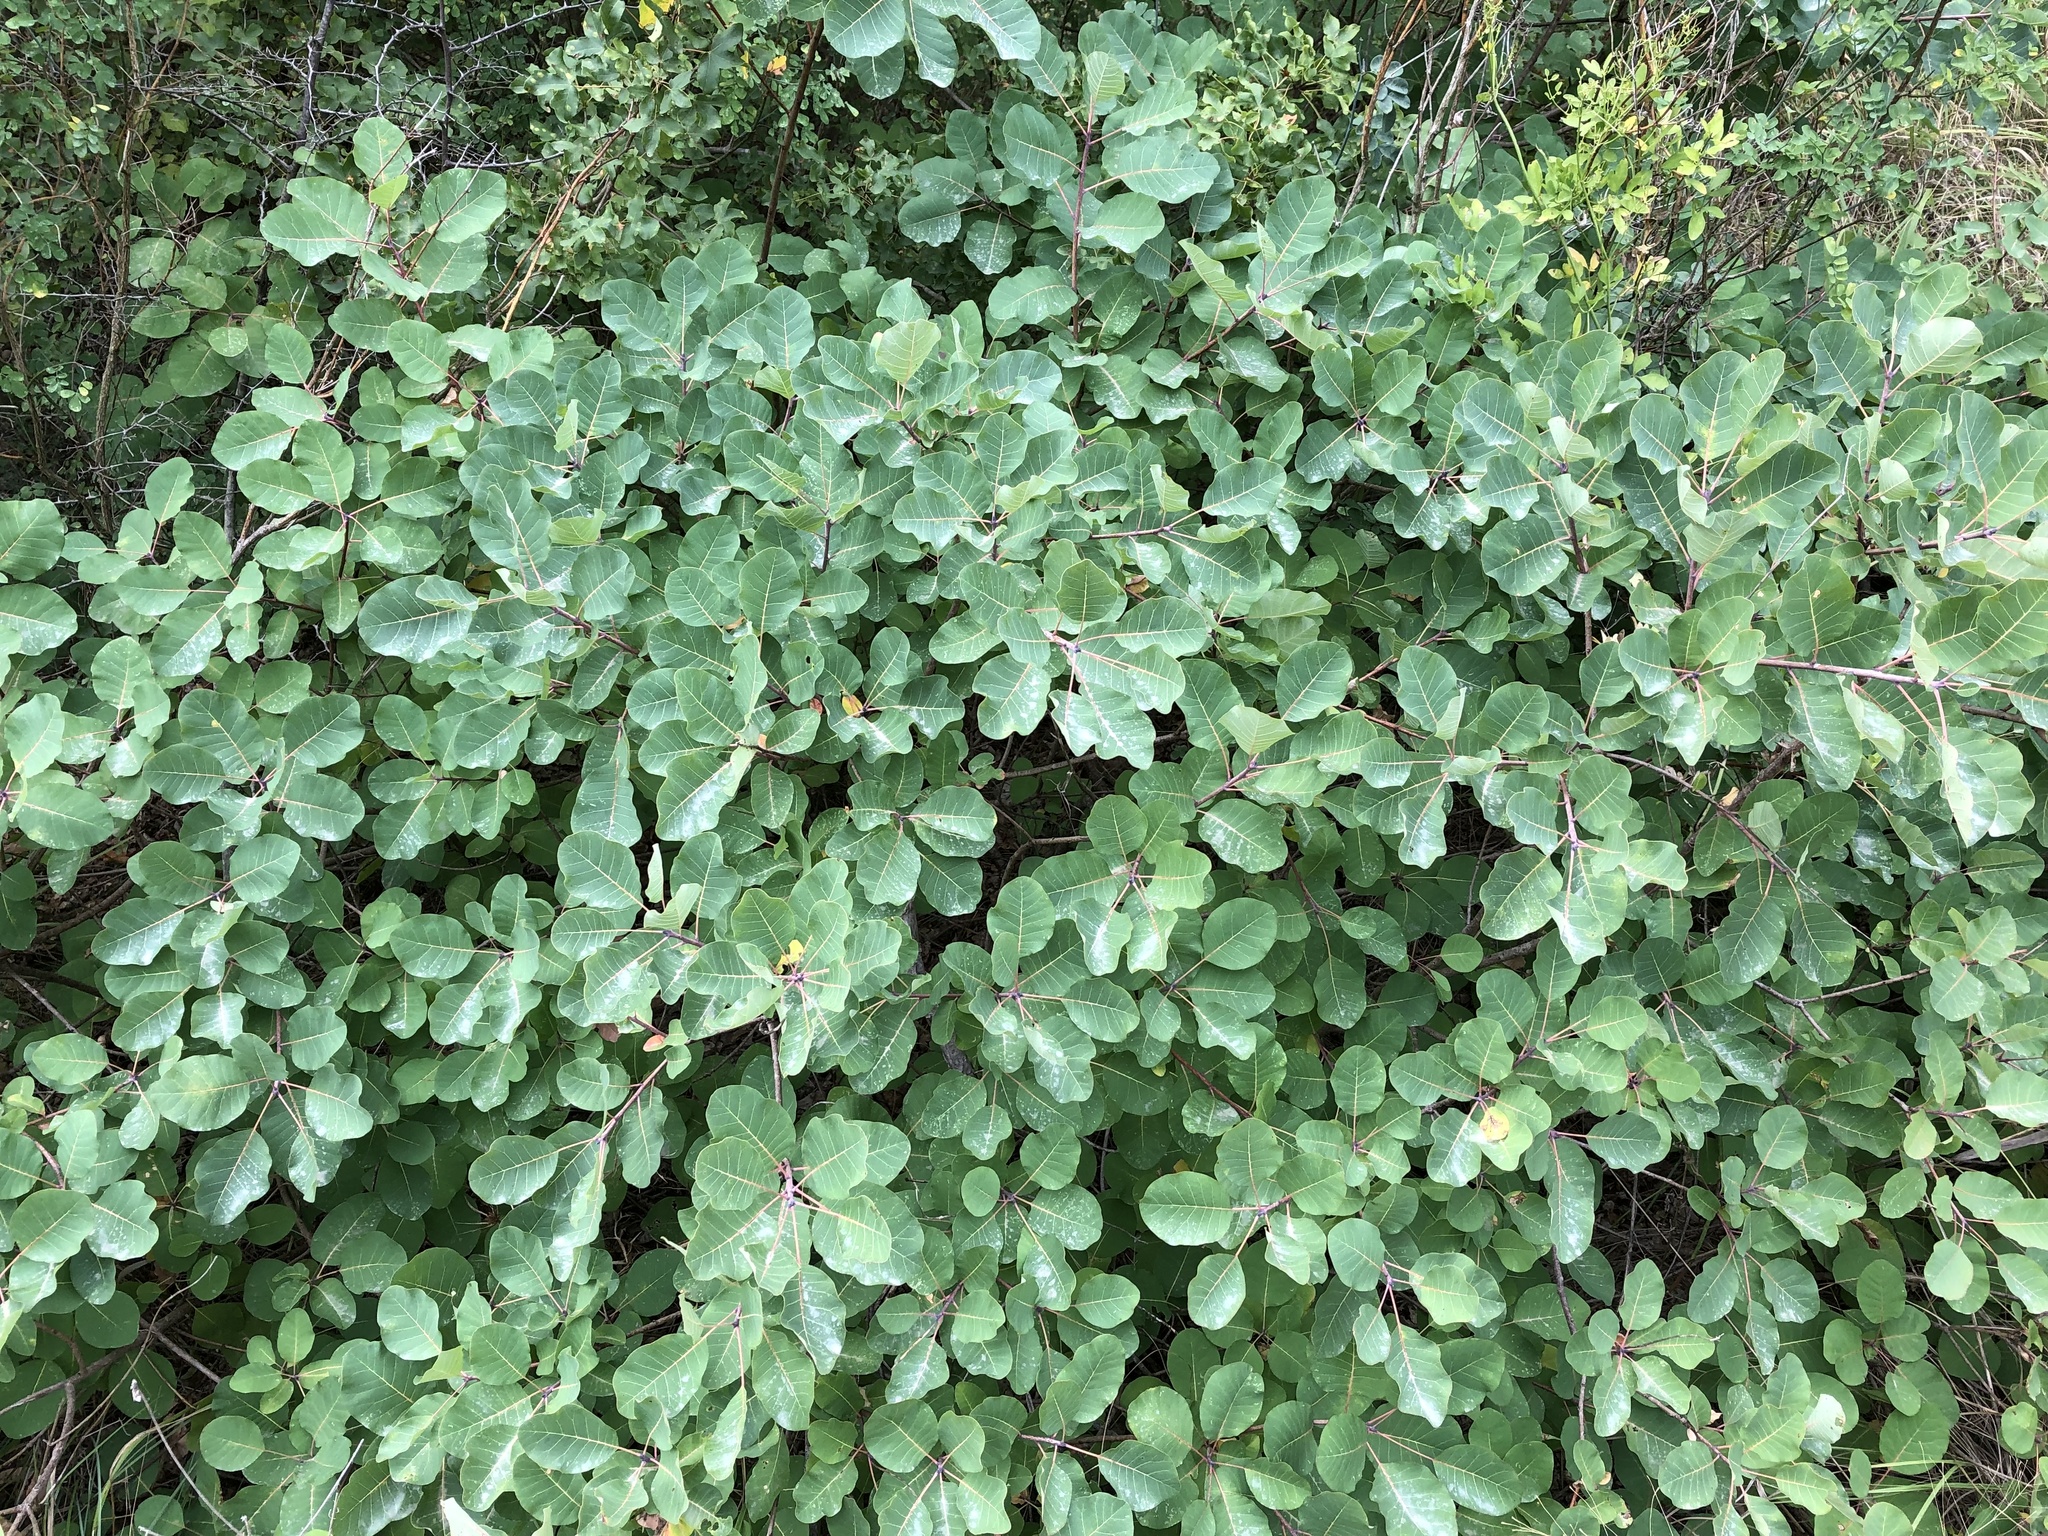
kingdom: Plantae
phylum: Tracheophyta
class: Magnoliopsida
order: Sapindales
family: Anacardiaceae
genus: Cotinus
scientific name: Cotinus coggygria
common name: Smoke-tree
